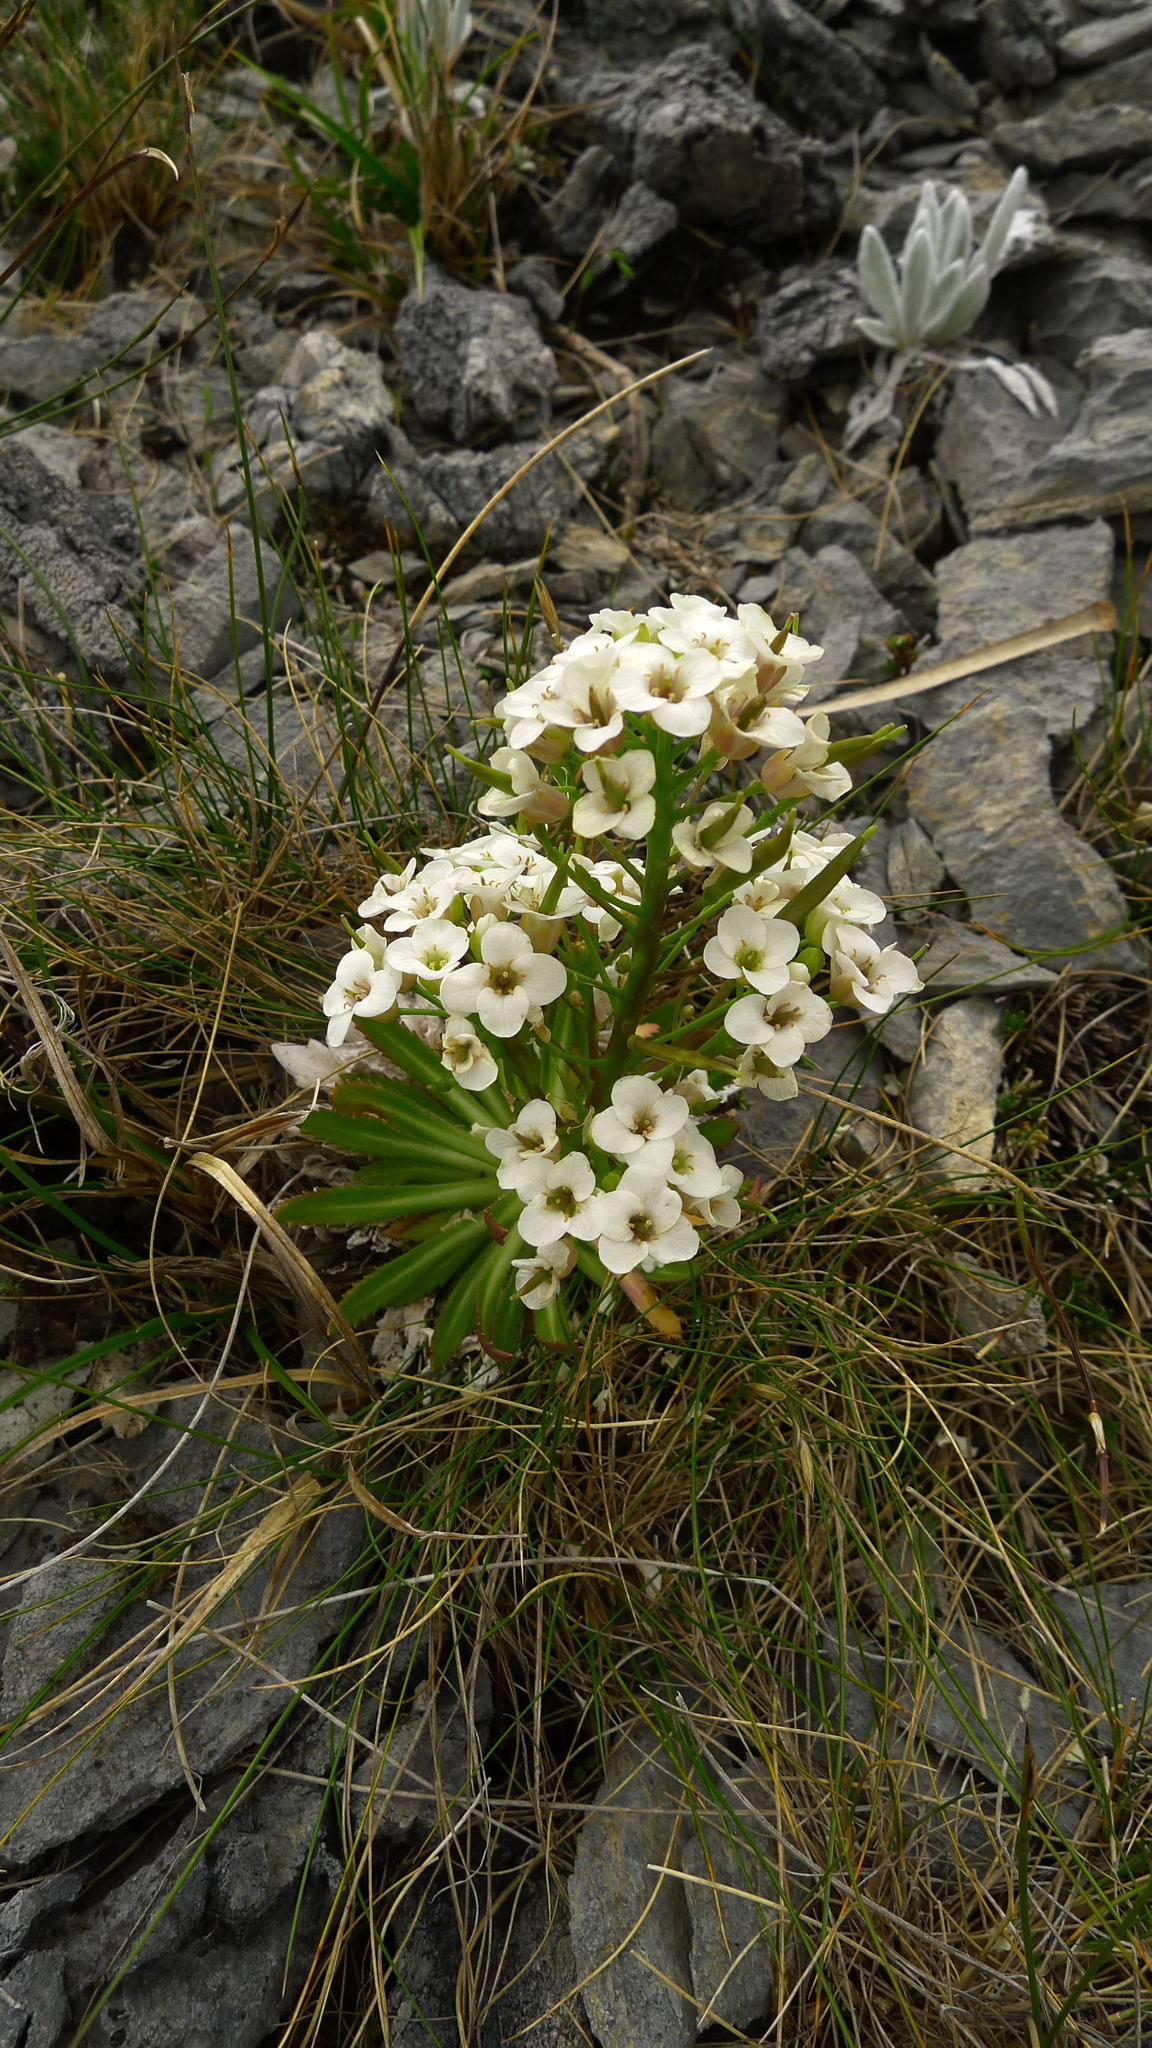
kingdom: Plantae
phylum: Tracheophyta
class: Magnoliopsida
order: Brassicales
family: Brassicaceae
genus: Pachycladon
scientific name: Pachycladon latisiliquum
